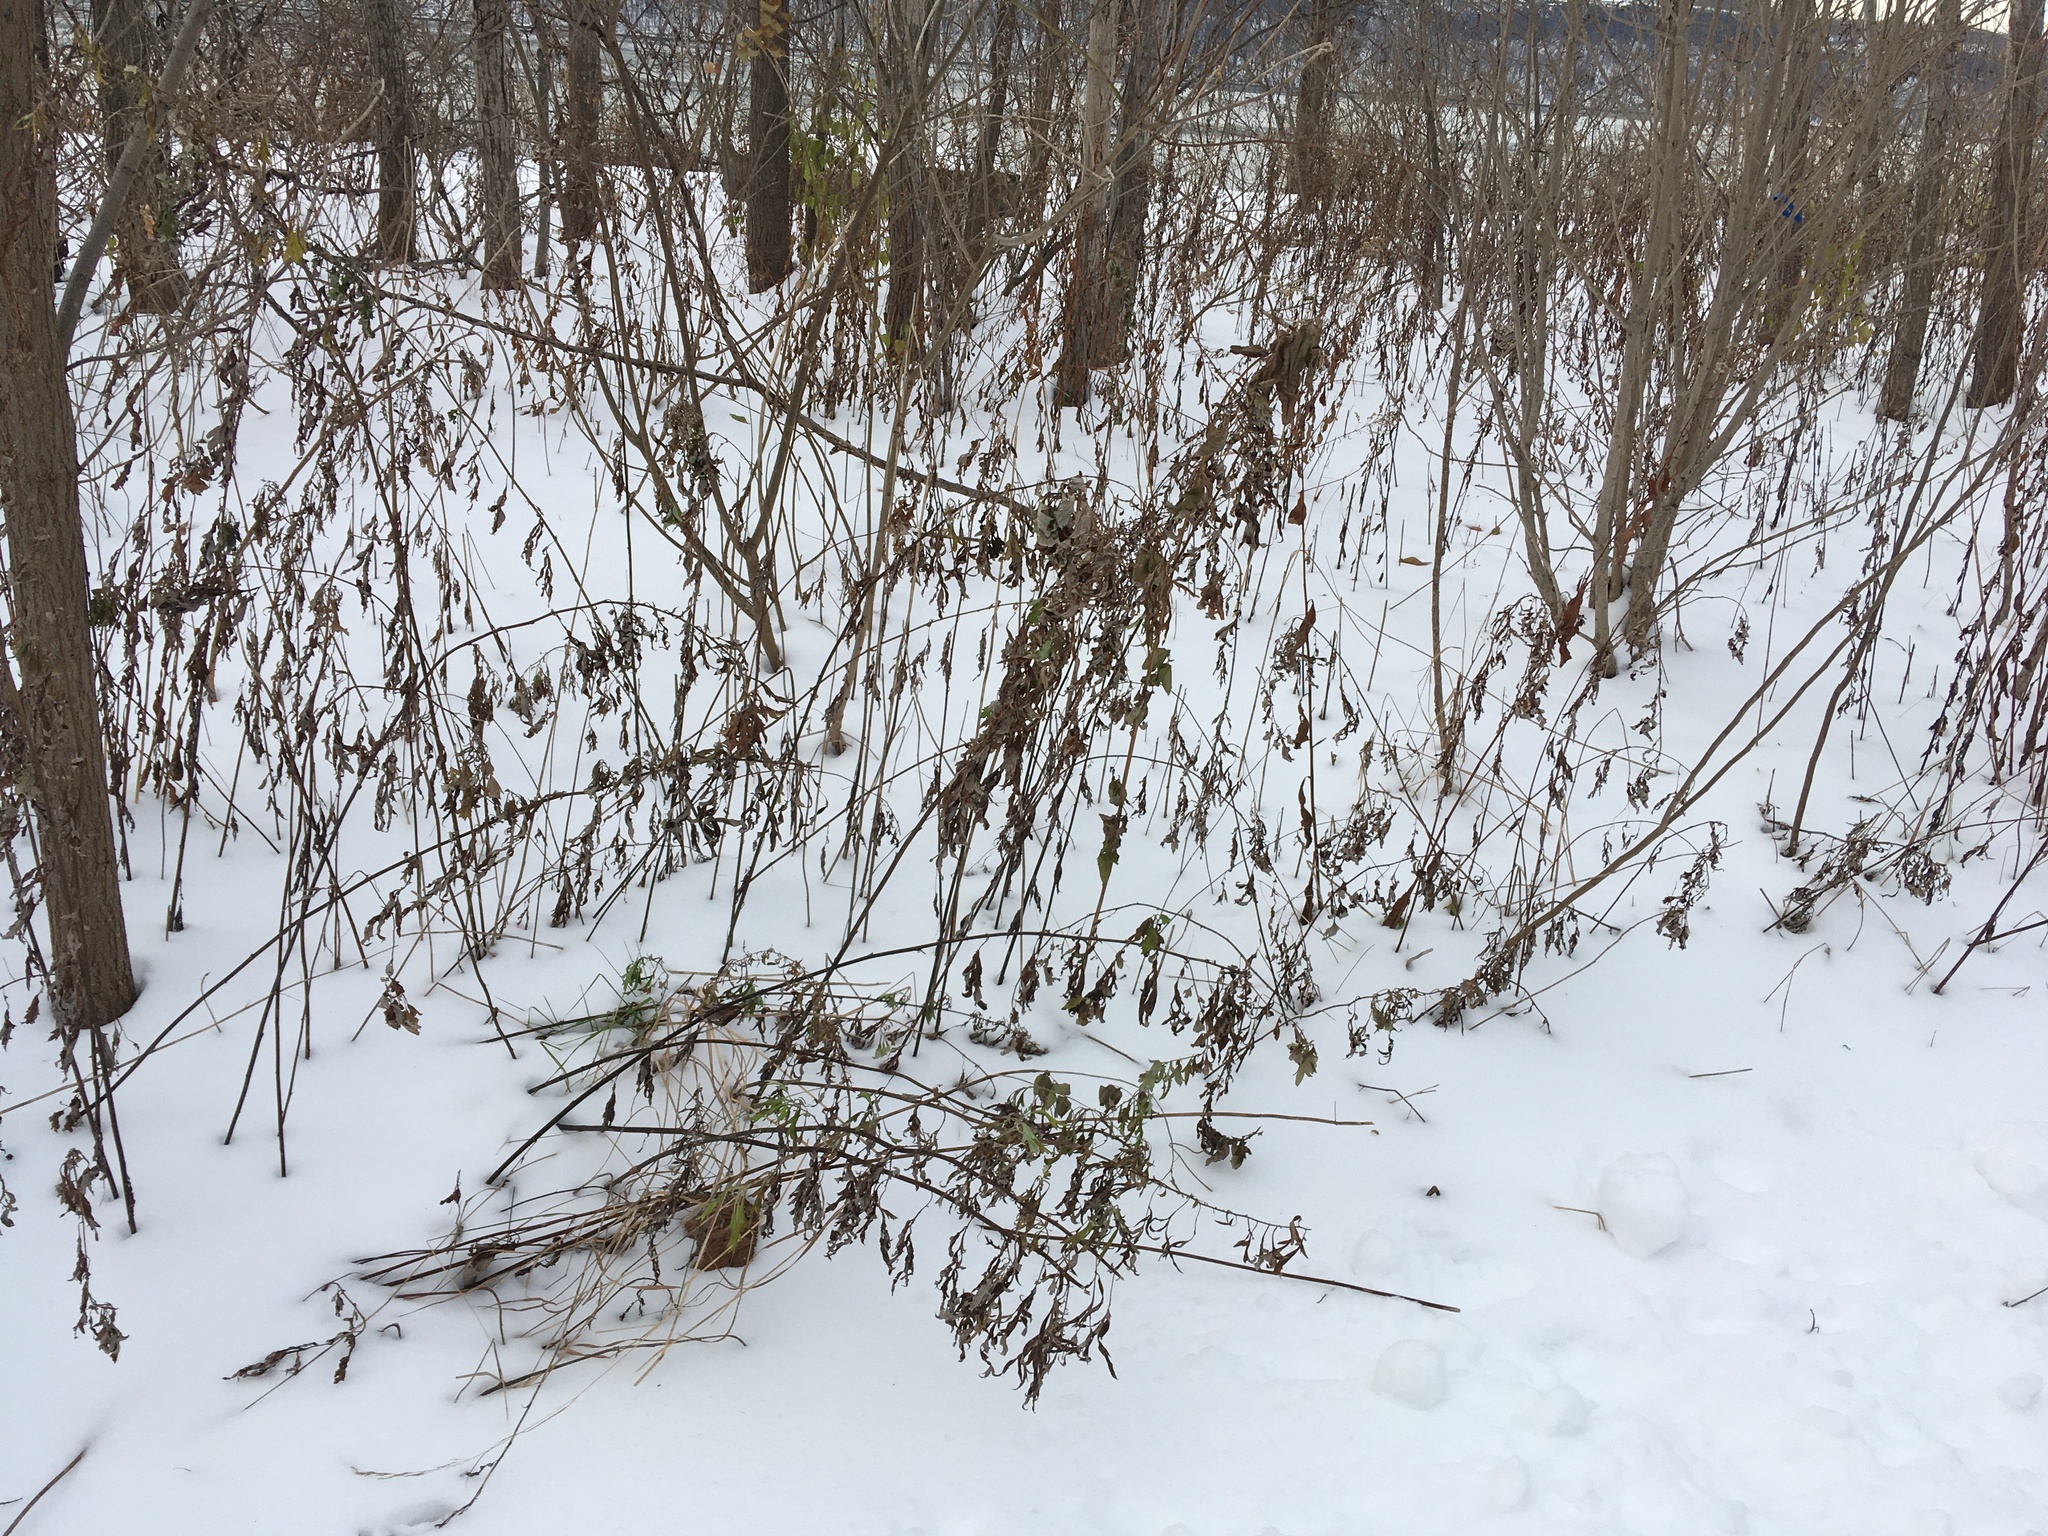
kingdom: Plantae
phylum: Tracheophyta
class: Magnoliopsida
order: Asterales
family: Asteraceae
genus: Artemisia
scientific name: Artemisia vulgaris
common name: Mugwort
